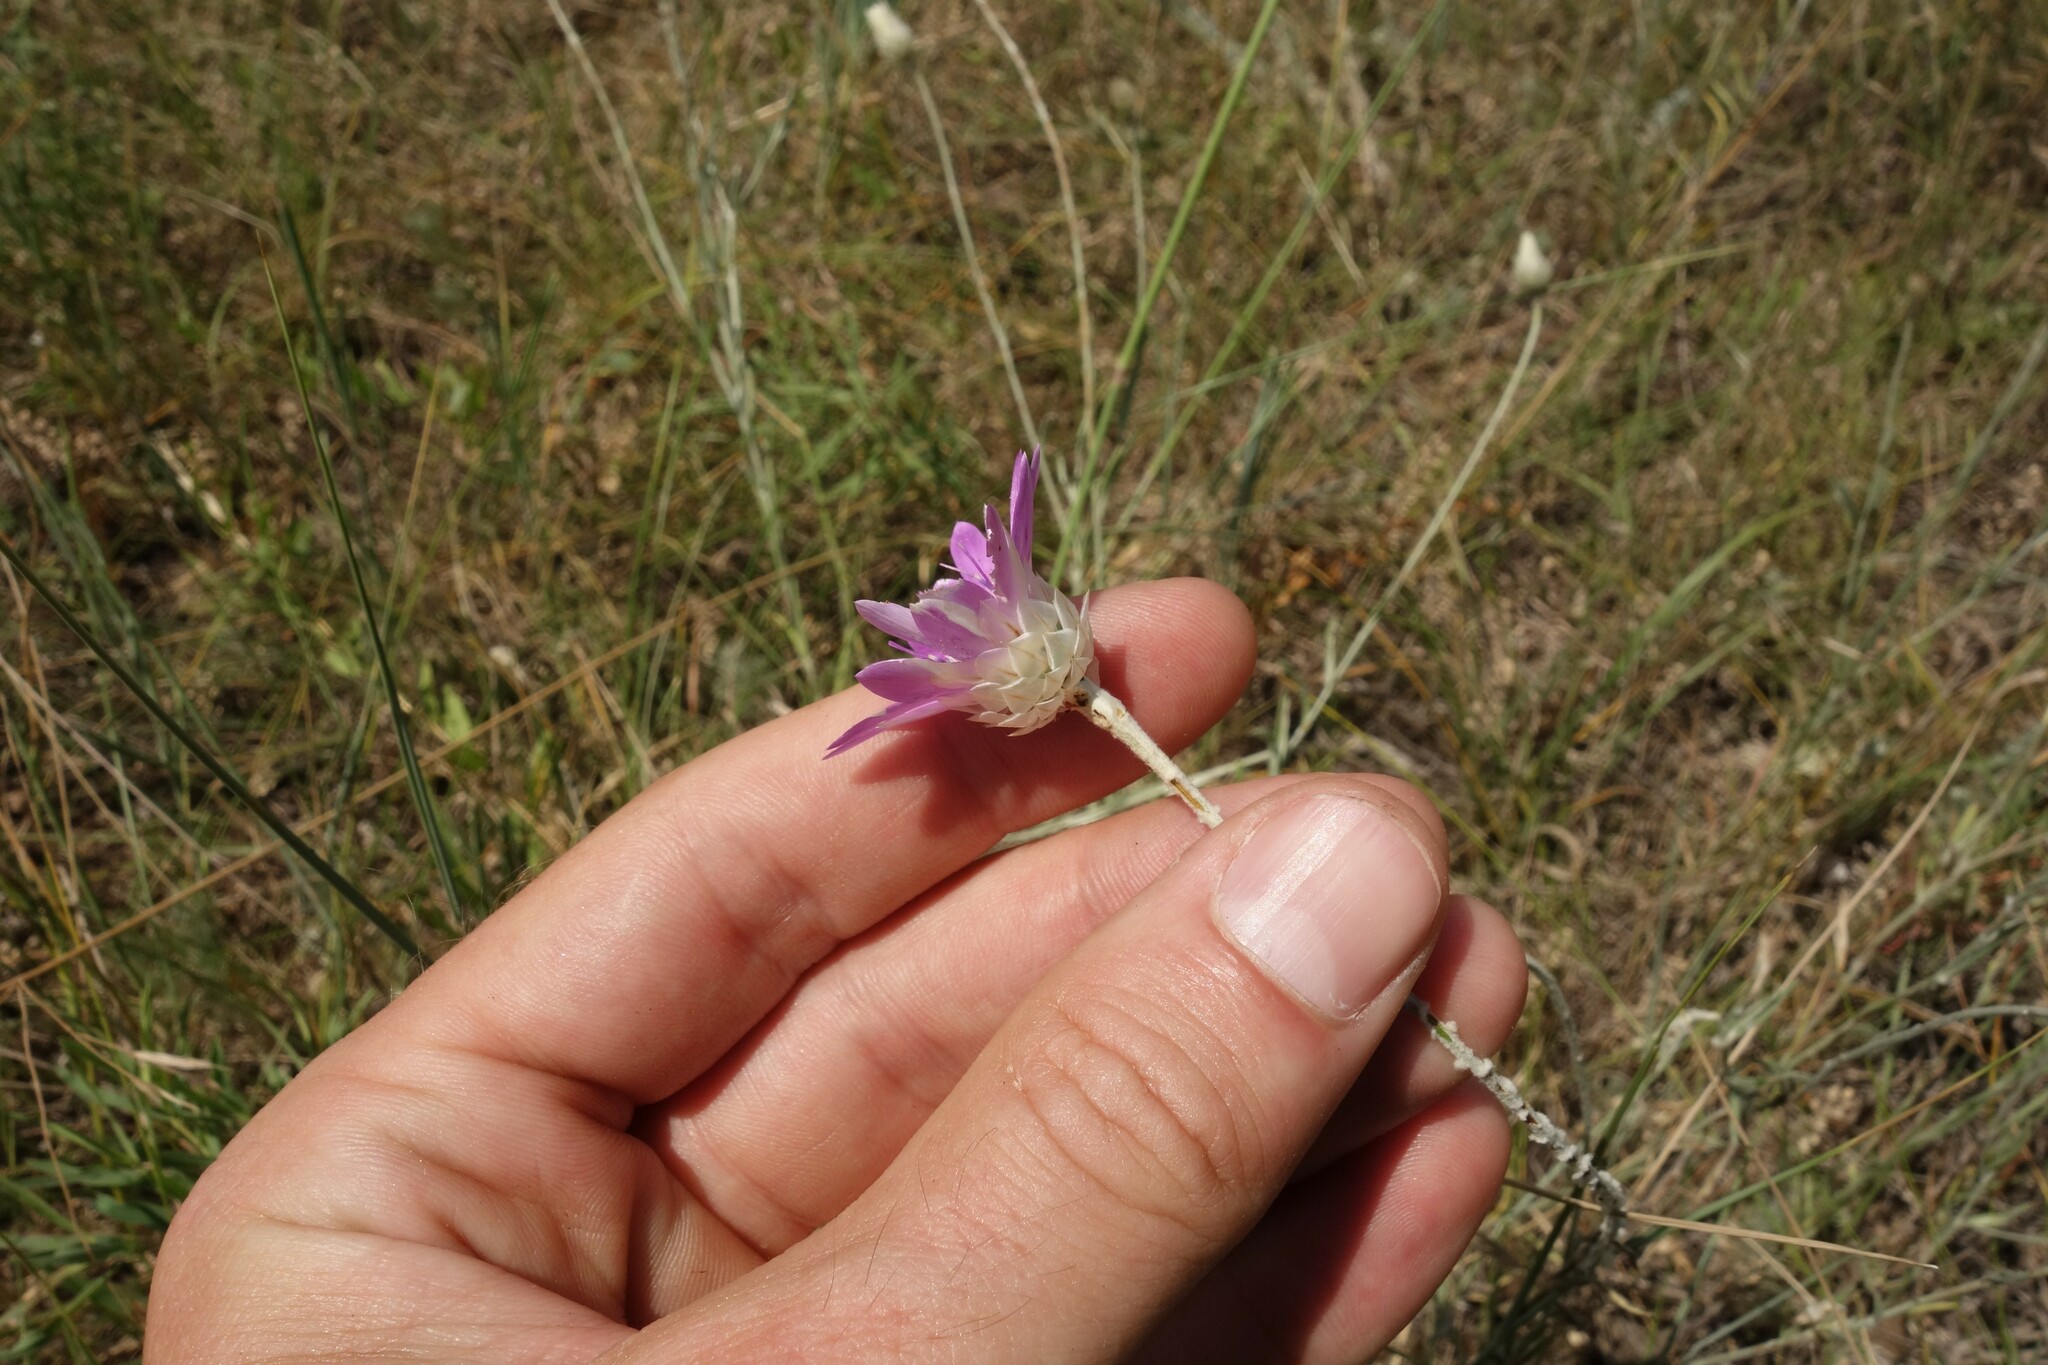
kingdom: Plantae
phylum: Tracheophyta
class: Magnoliopsida
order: Asterales
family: Asteraceae
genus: Xeranthemum
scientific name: Xeranthemum annuum
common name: Immortelle
